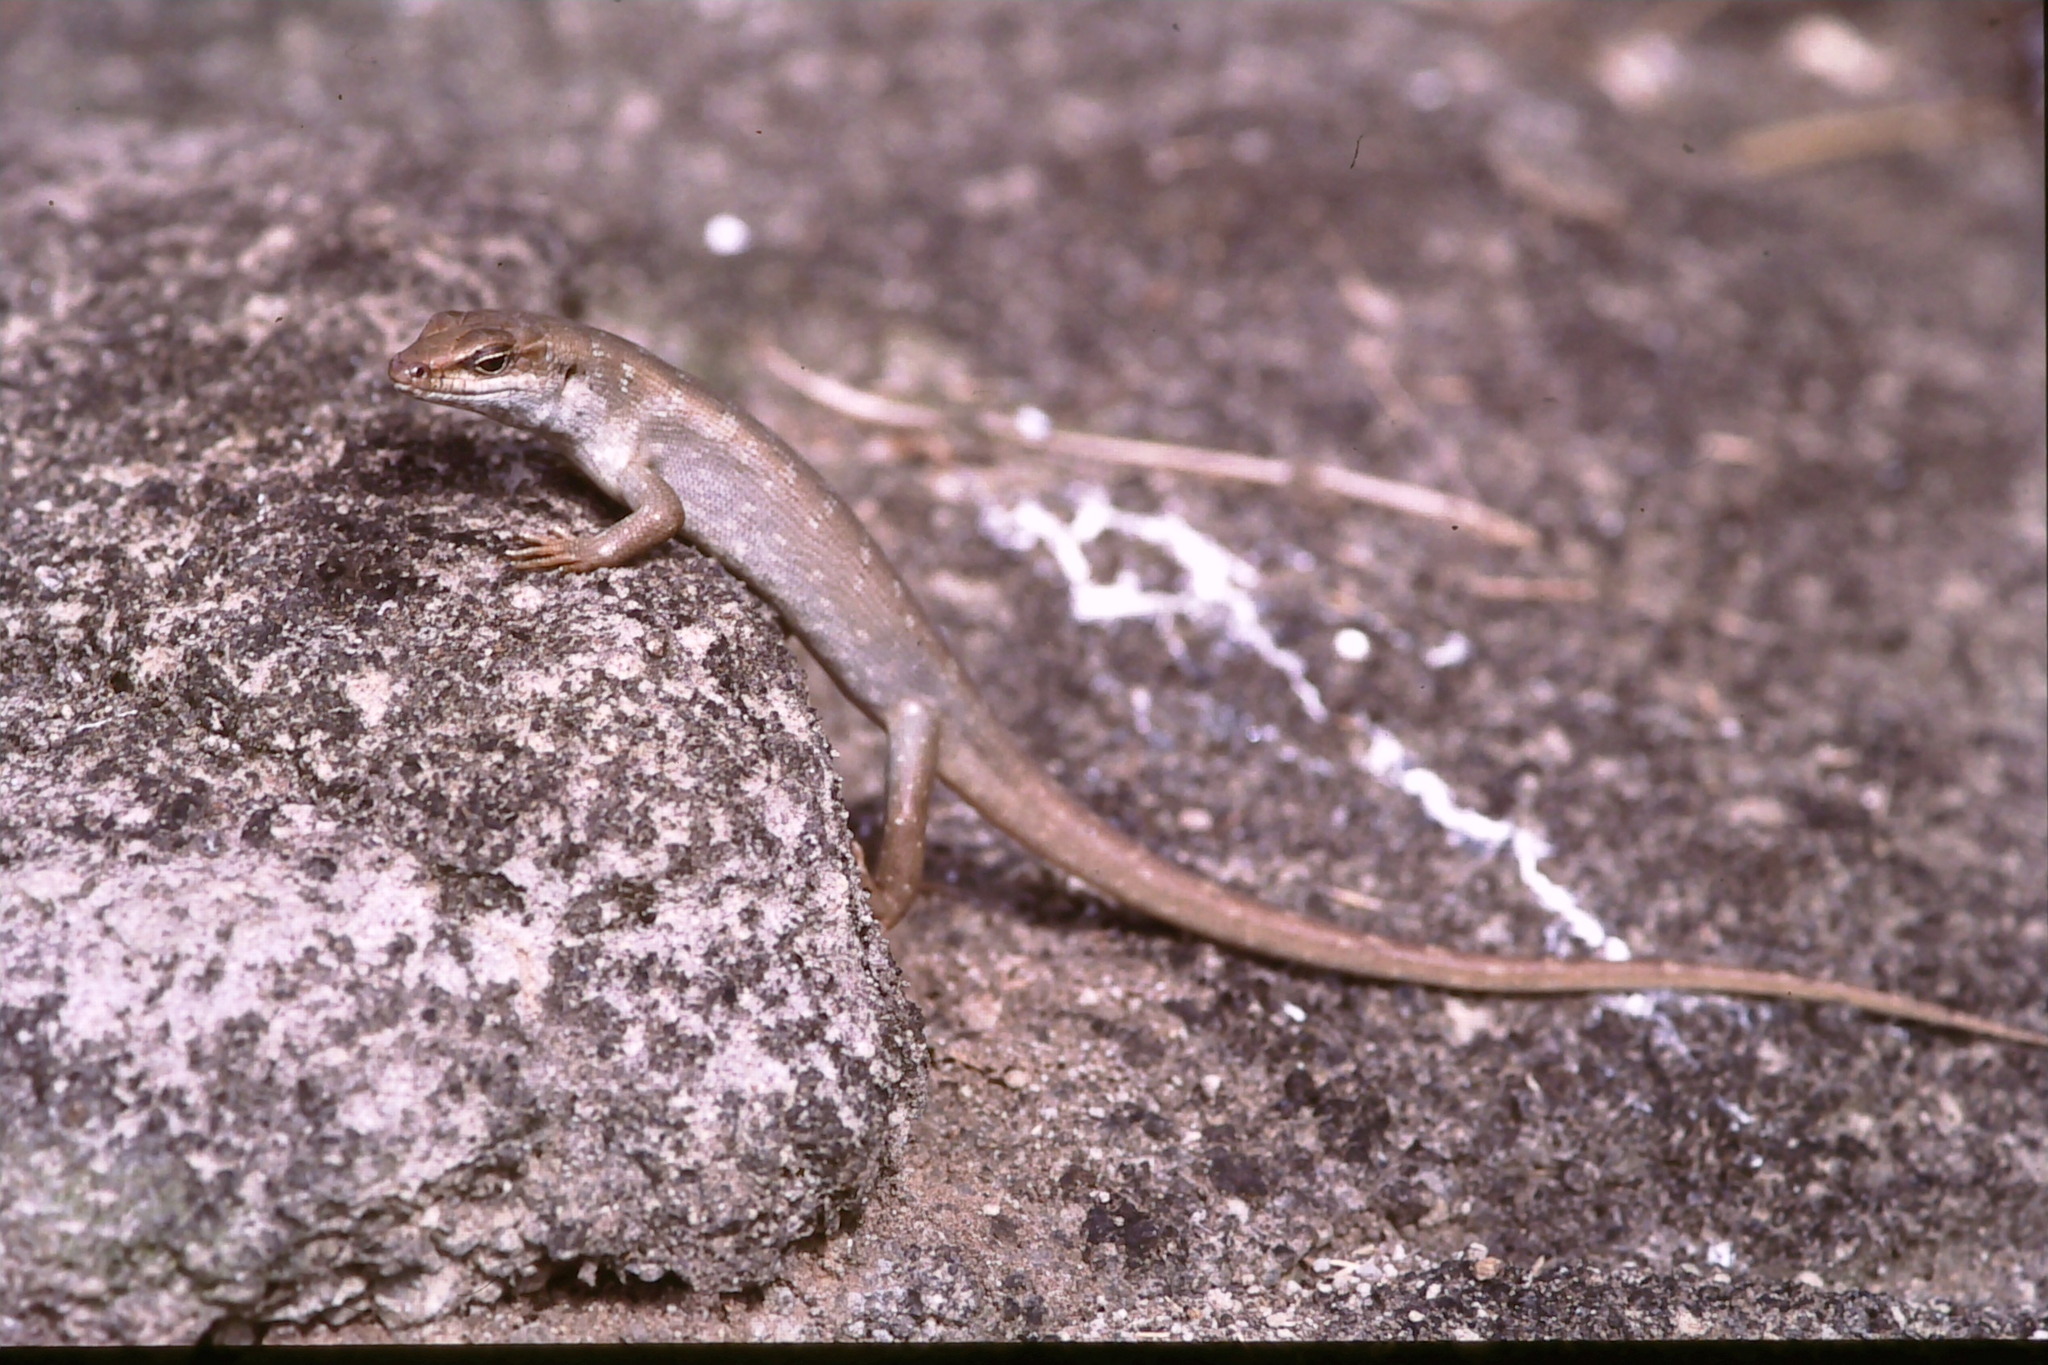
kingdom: Animalia
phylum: Chordata
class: Squamata
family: Scincidae
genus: Leiolopisma
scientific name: Leiolopisma telfairii
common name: Round island skink
